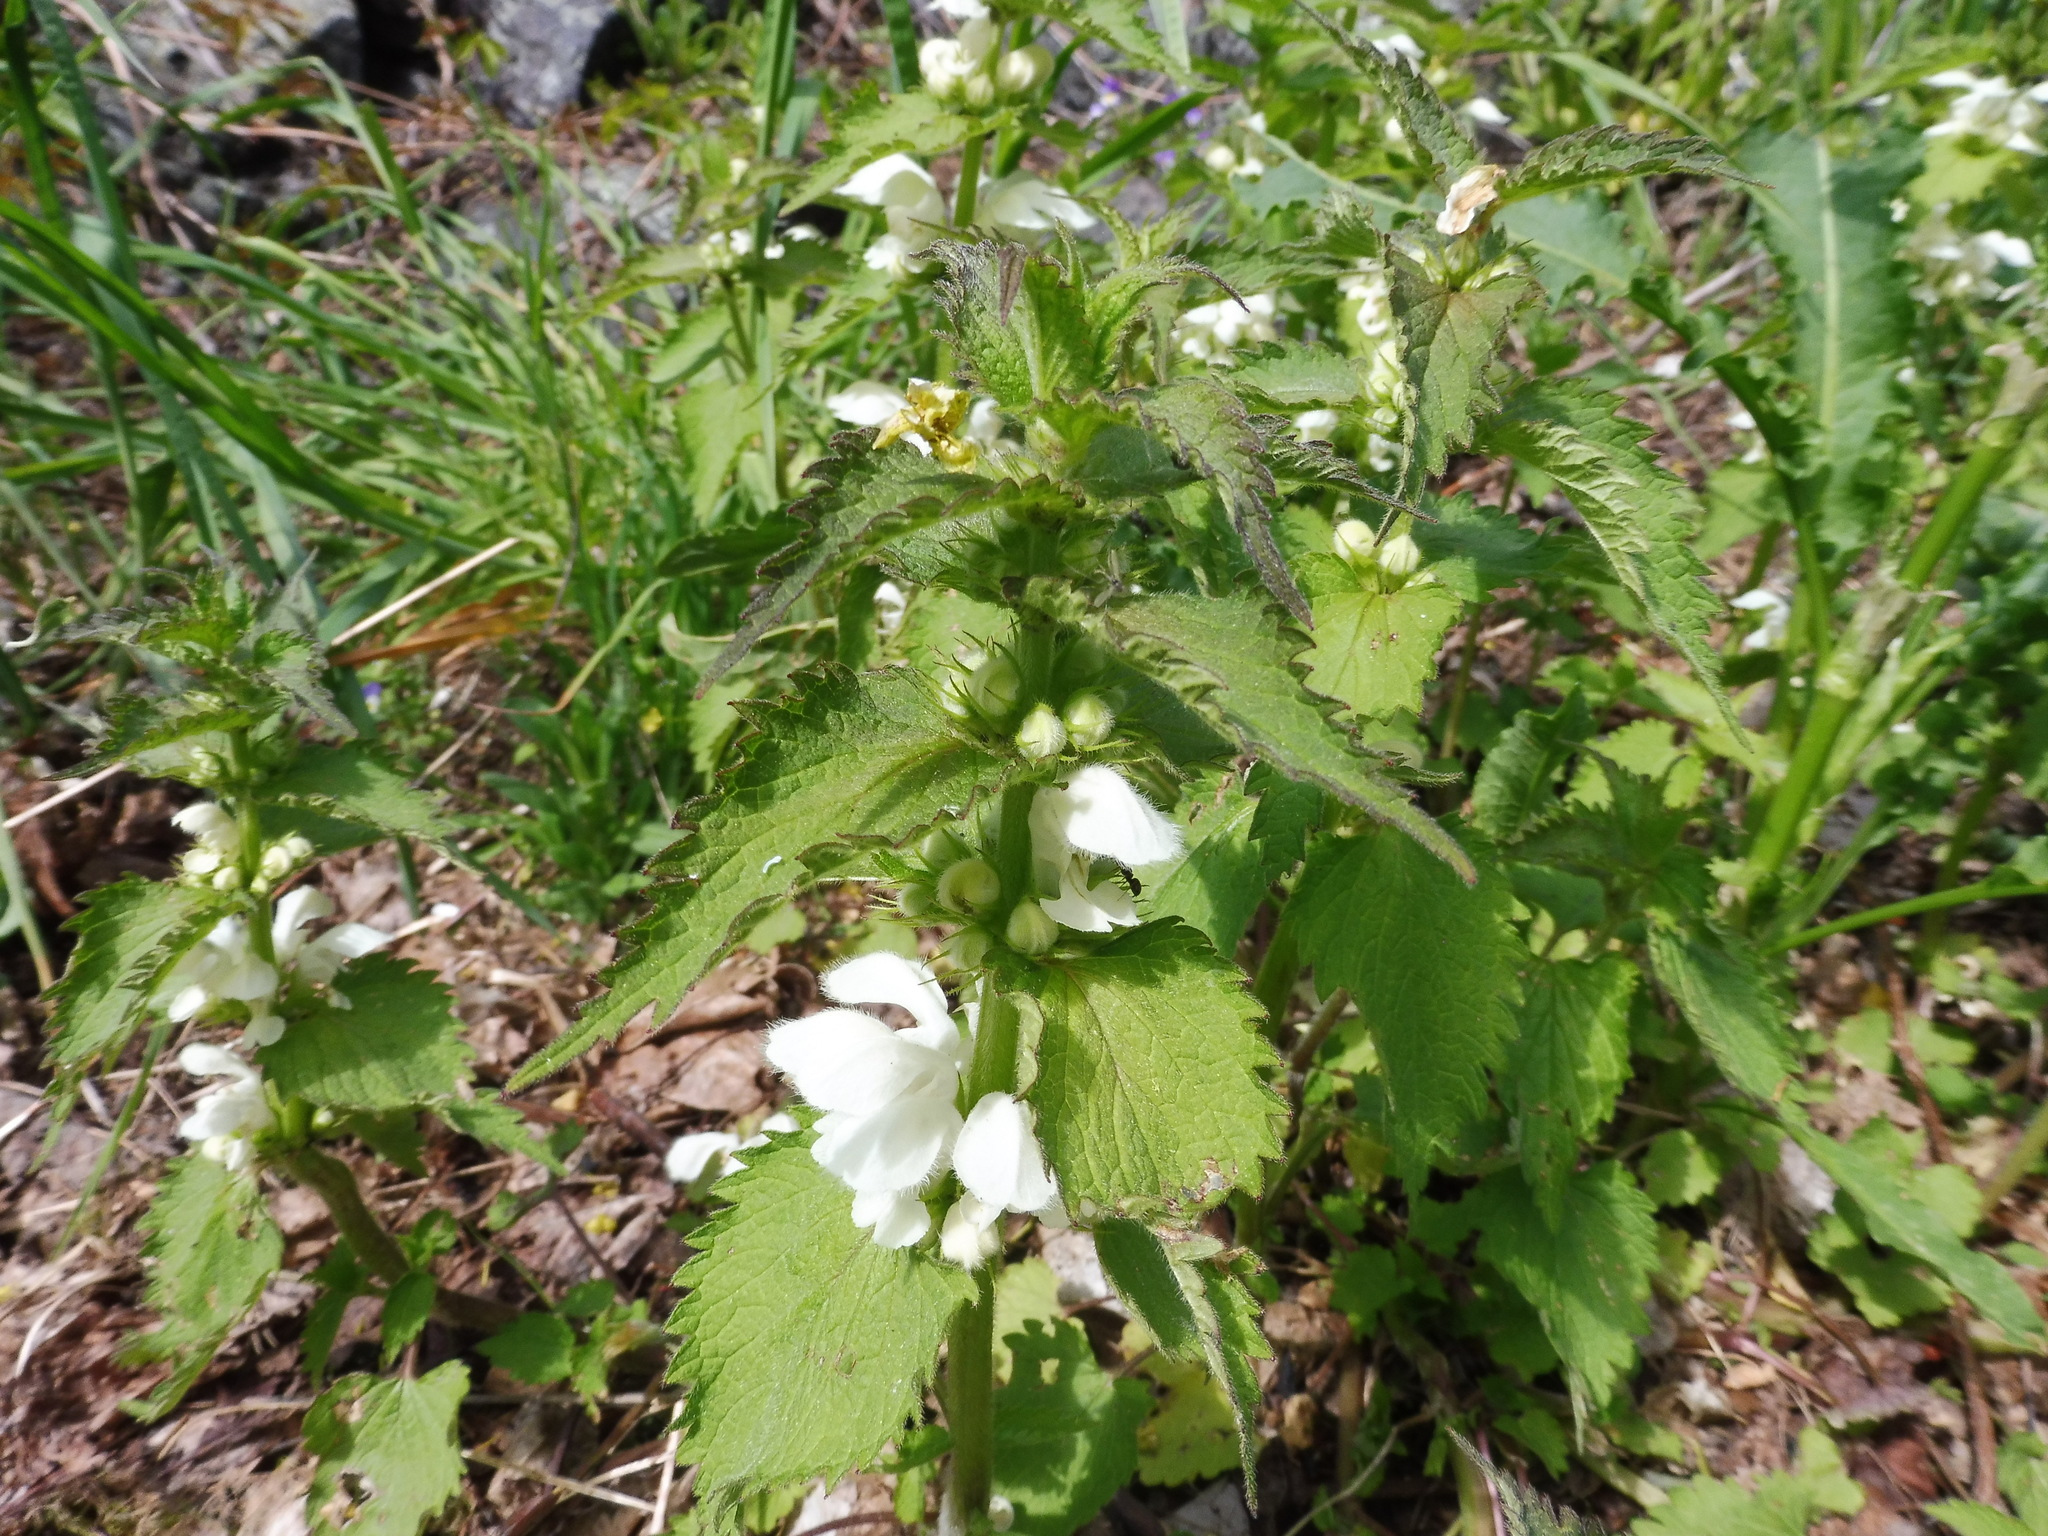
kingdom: Plantae
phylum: Tracheophyta
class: Magnoliopsida
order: Lamiales
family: Lamiaceae
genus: Lamium
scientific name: Lamium album
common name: White dead-nettle
